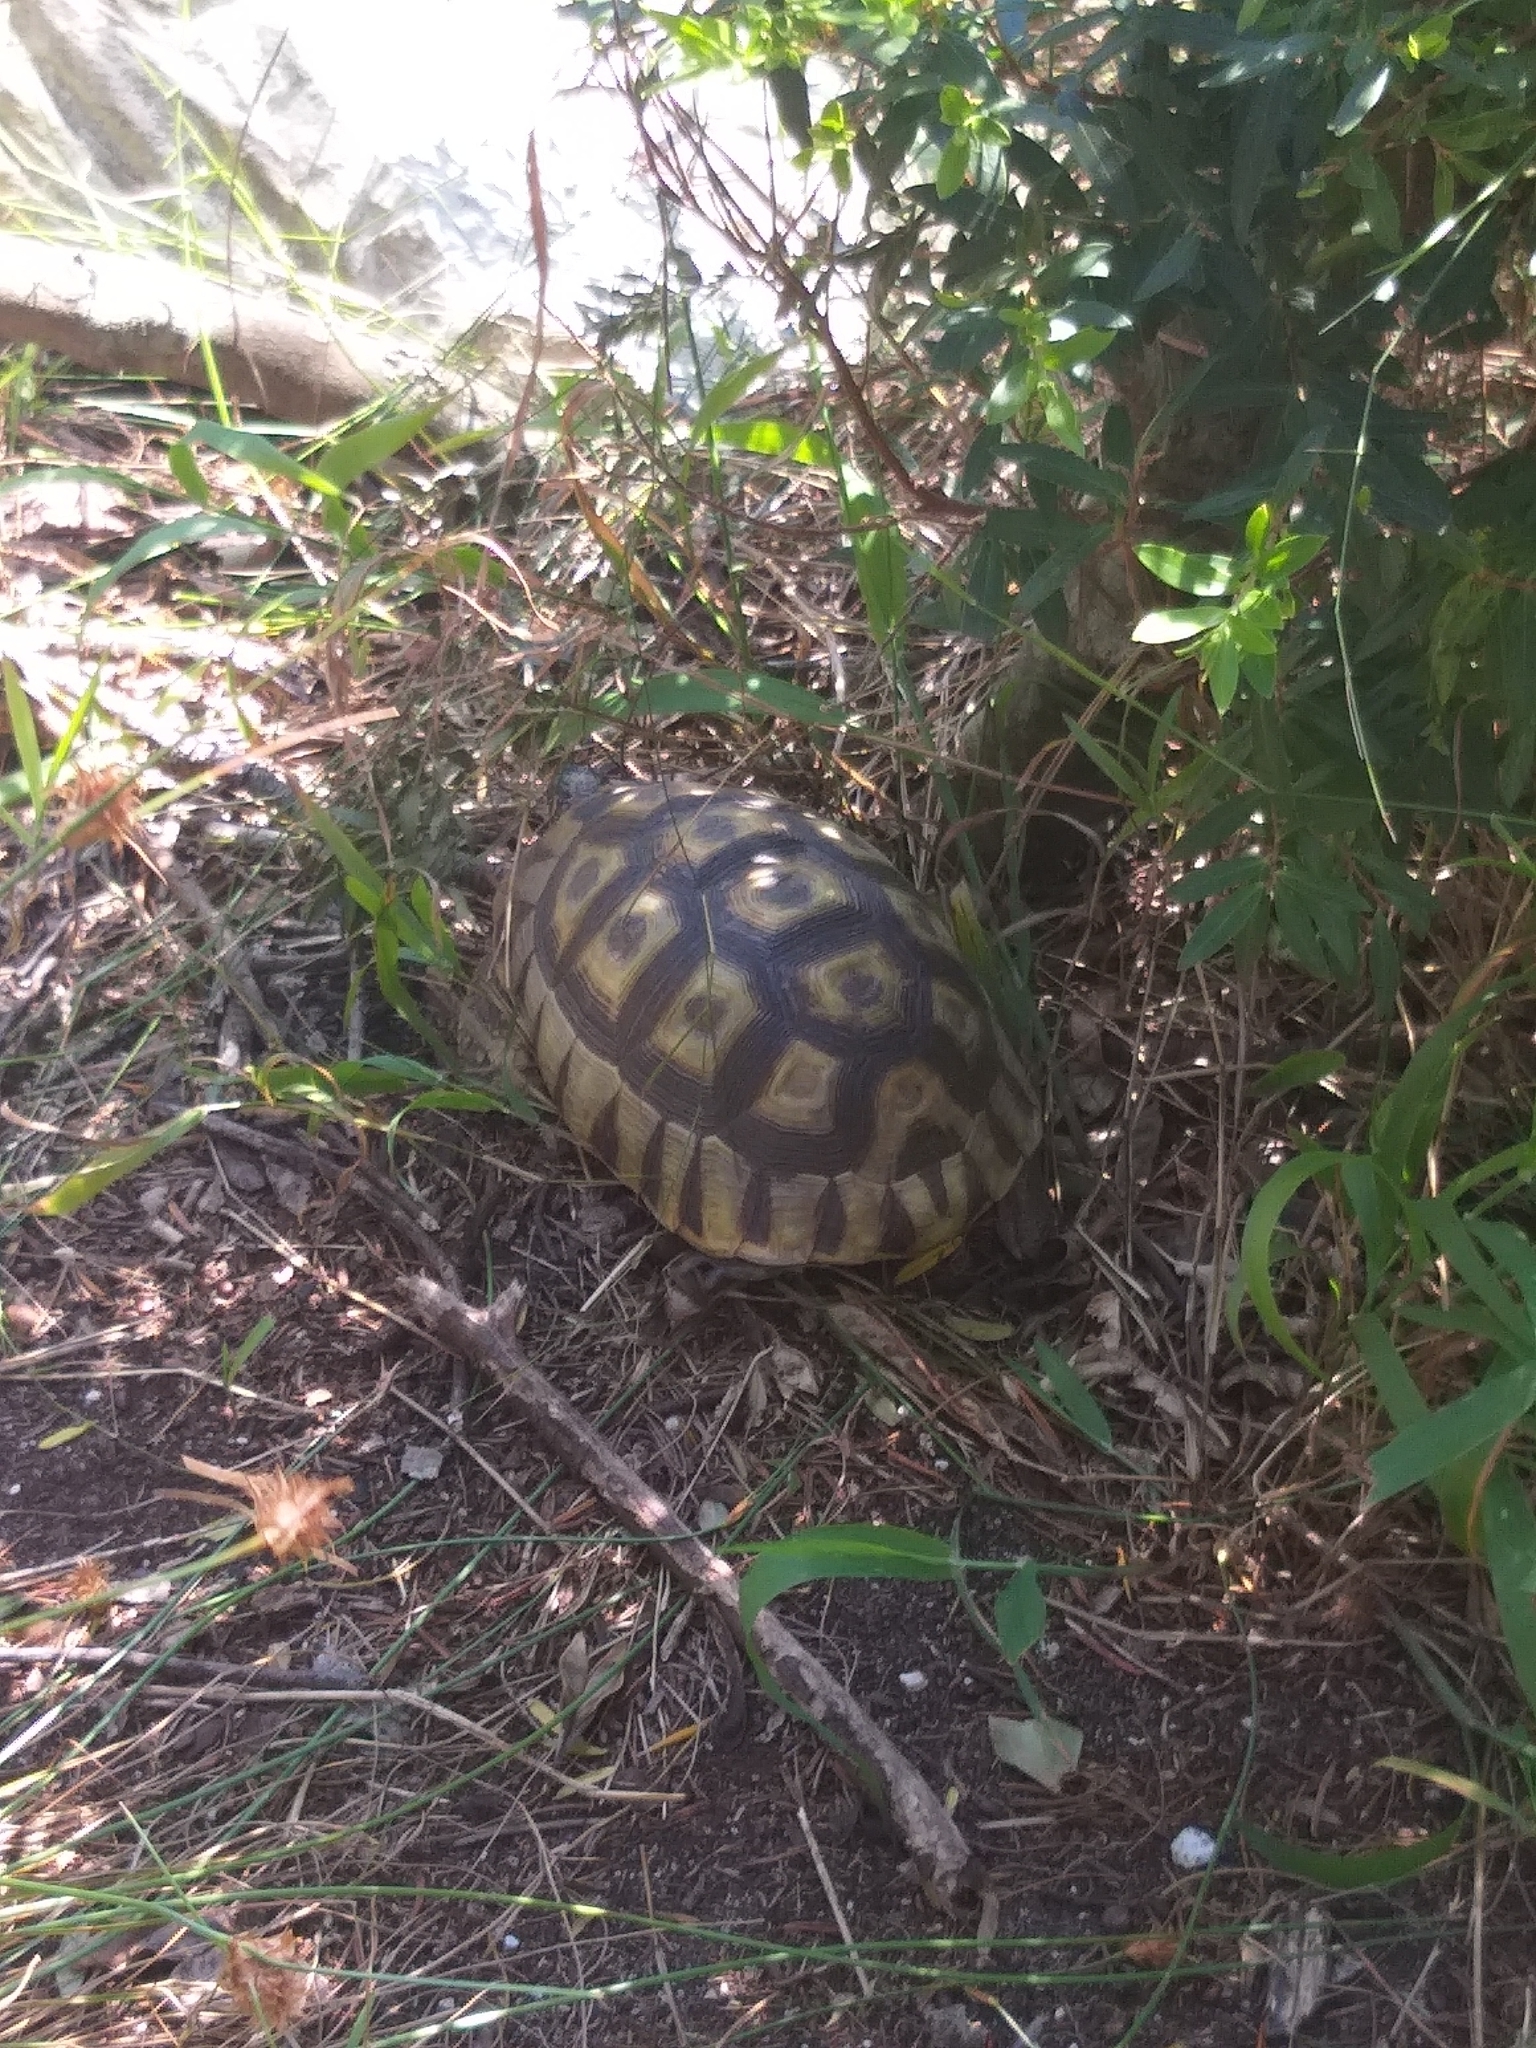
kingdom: Animalia
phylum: Chordata
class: Testudines
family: Testudinidae
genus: Chersina
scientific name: Chersina angulata
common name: South african bowsprit tortoise
